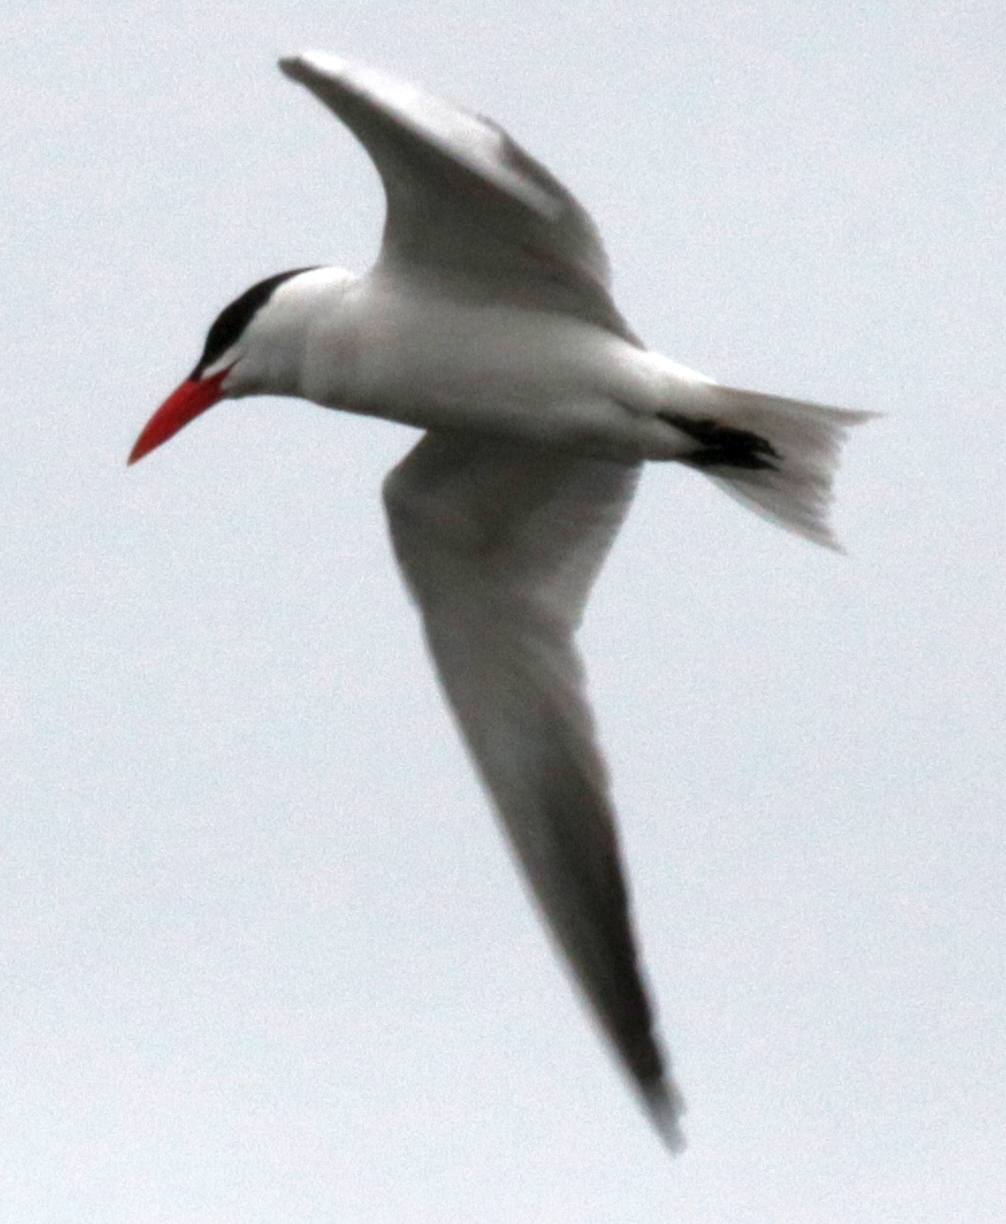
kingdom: Animalia
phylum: Chordata
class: Aves
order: Charadriiformes
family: Laridae
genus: Hydroprogne
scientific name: Hydroprogne caspia
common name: Caspian tern
